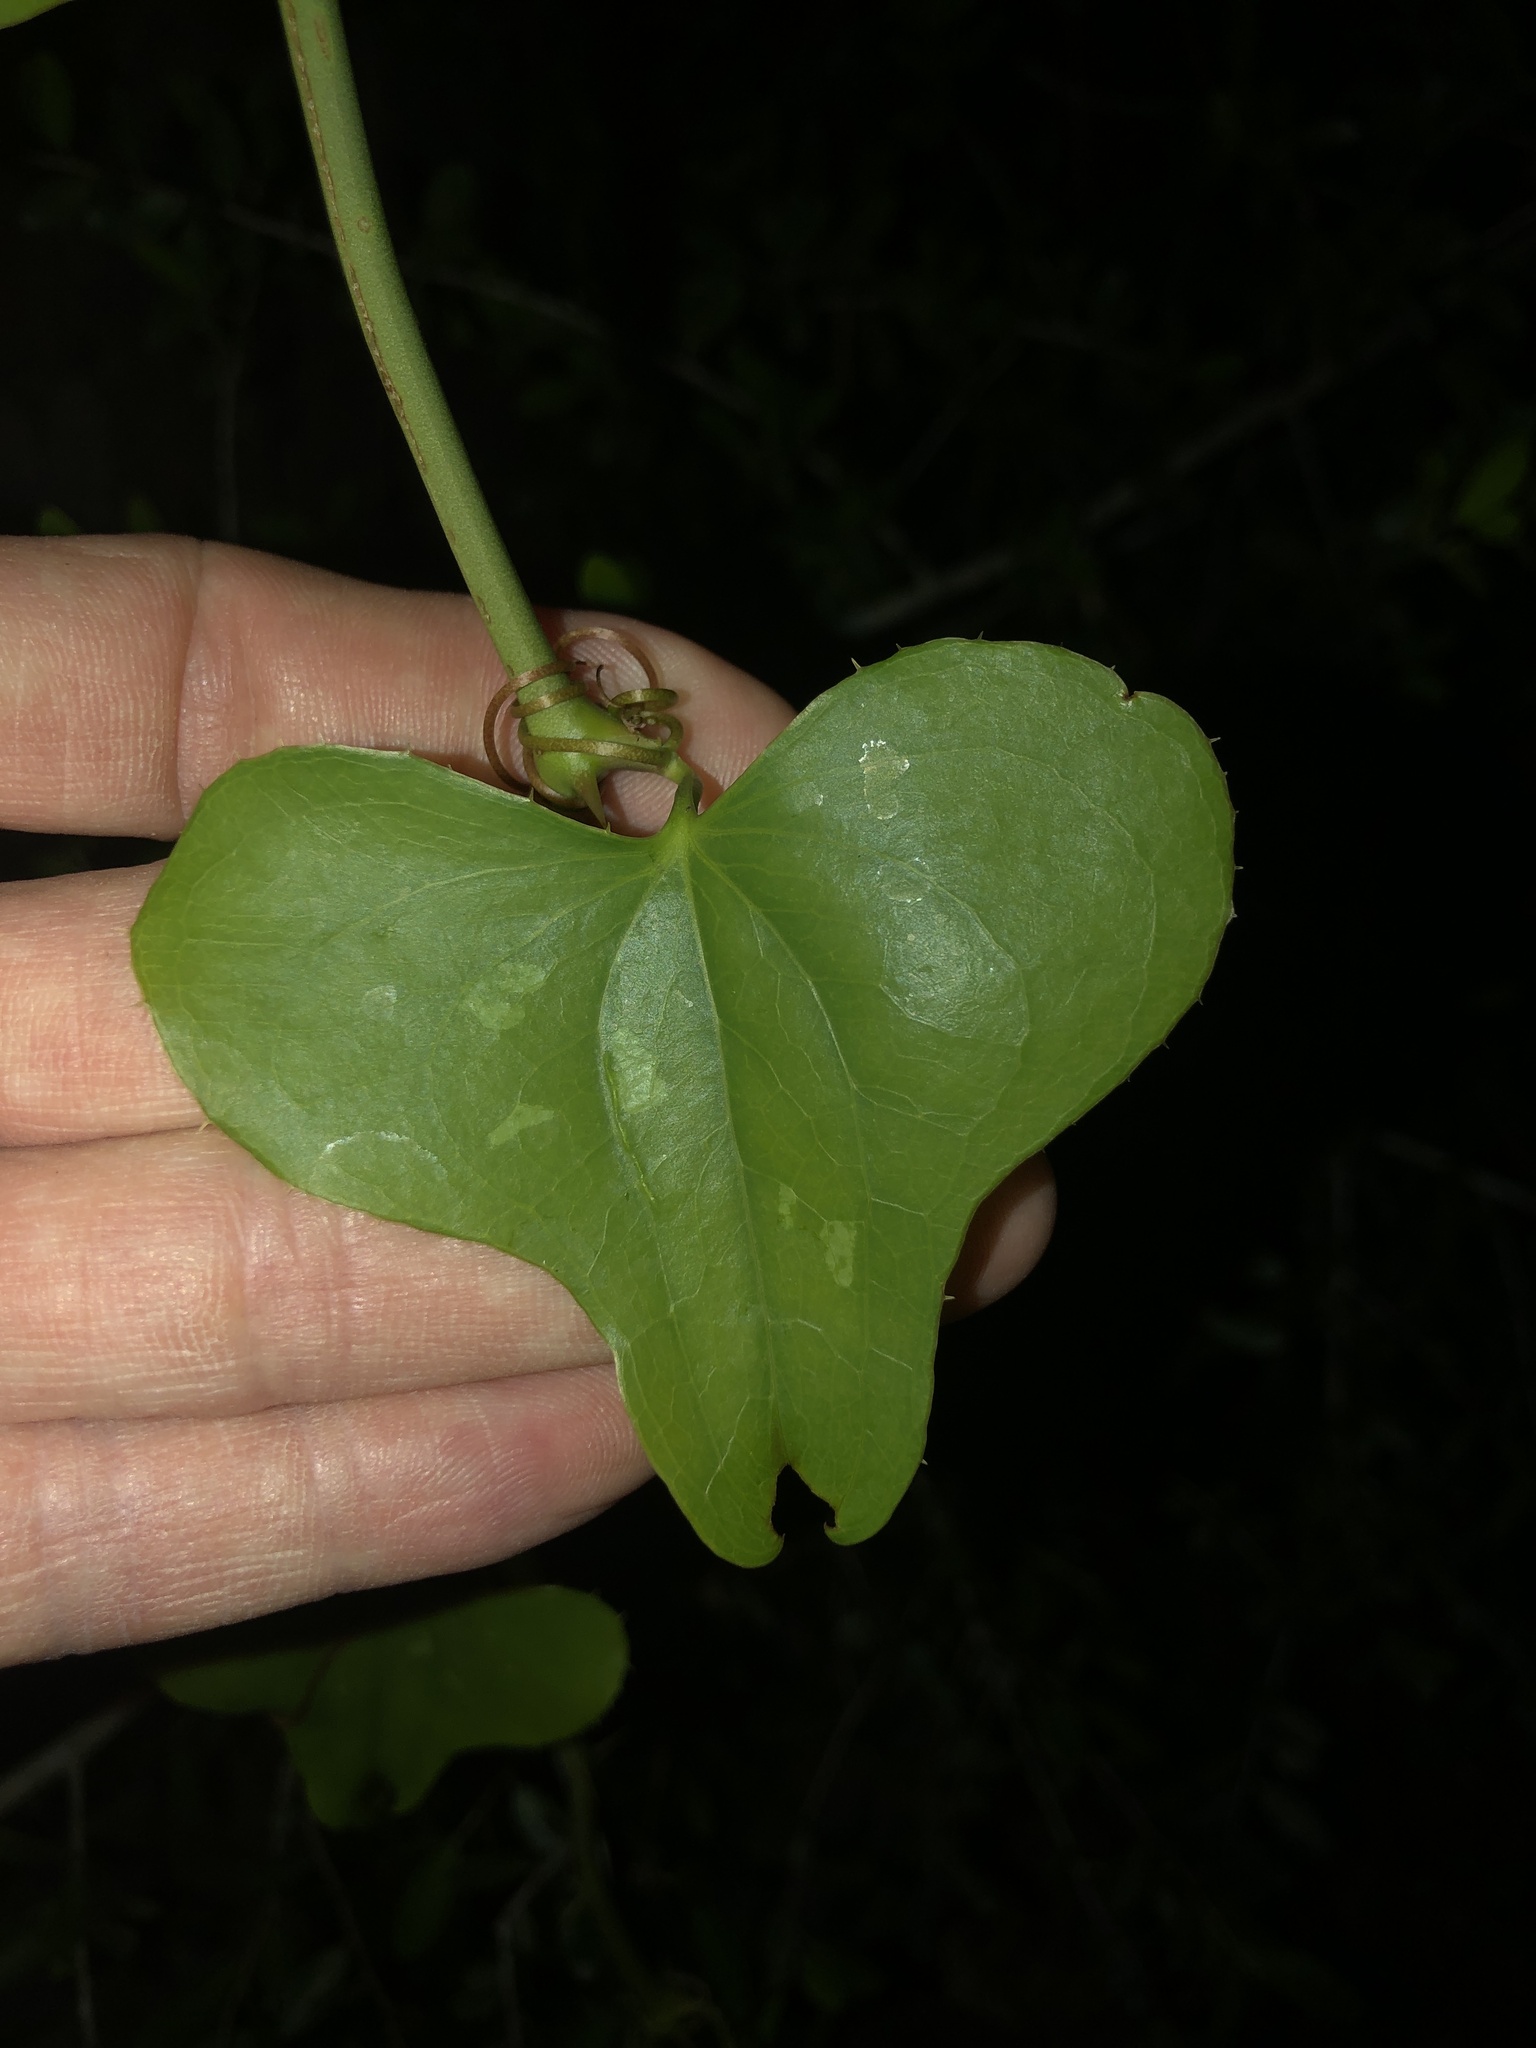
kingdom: Plantae
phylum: Tracheophyta
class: Liliopsida
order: Liliales
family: Smilacaceae
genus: Smilax
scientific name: Smilax bona-nox
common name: Catbrier
